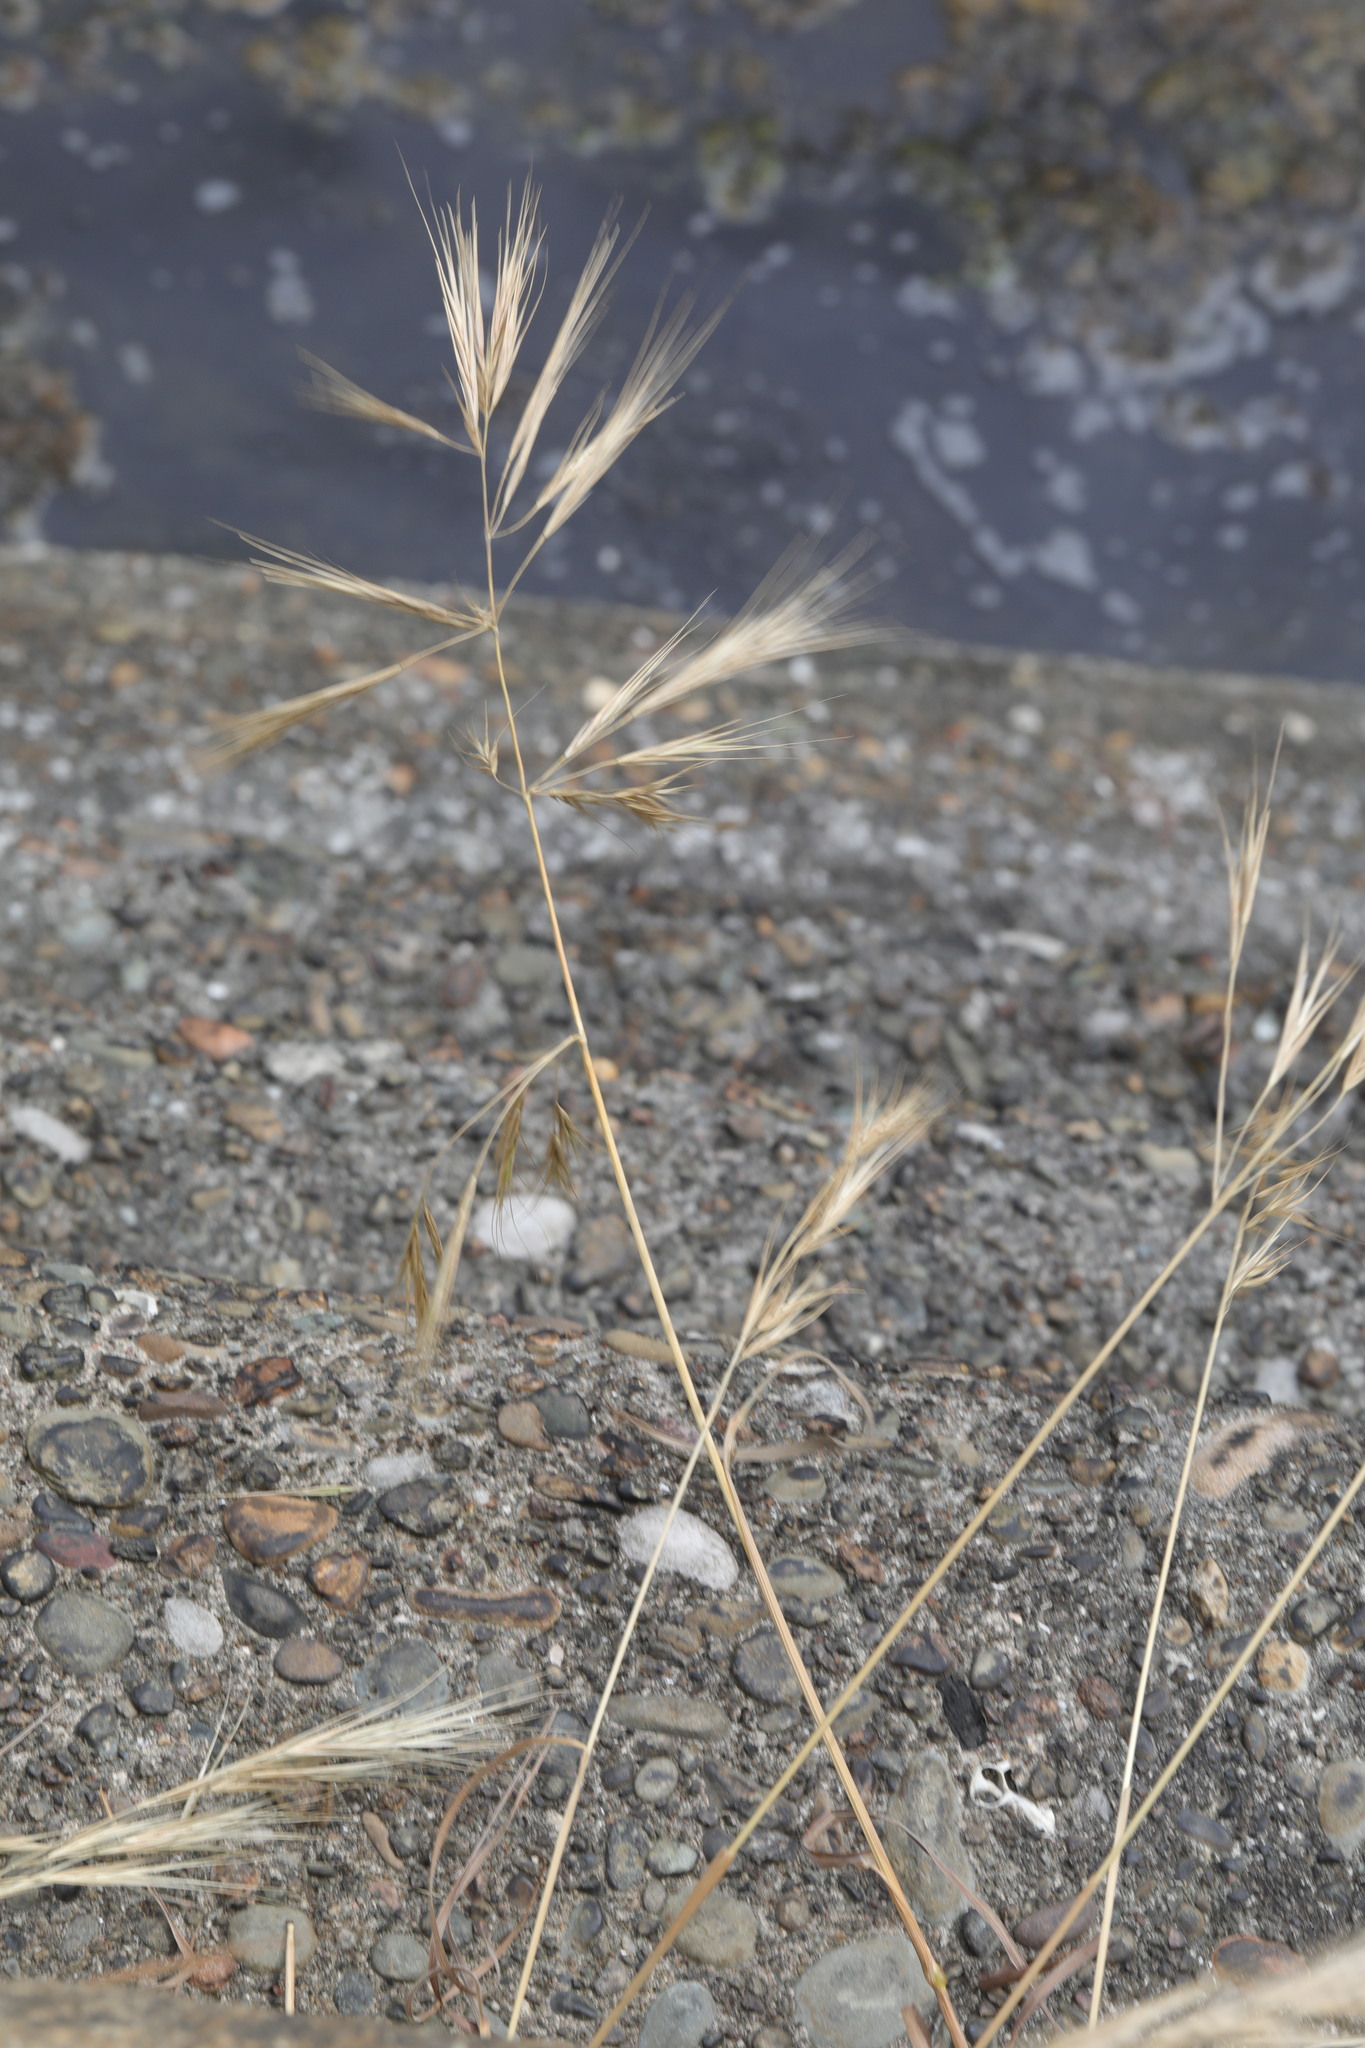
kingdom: Plantae
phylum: Tracheophyta
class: Liliopsida
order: Poales
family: Poaceae
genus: Bromus
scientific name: Bromus madritensis
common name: Compact brome
